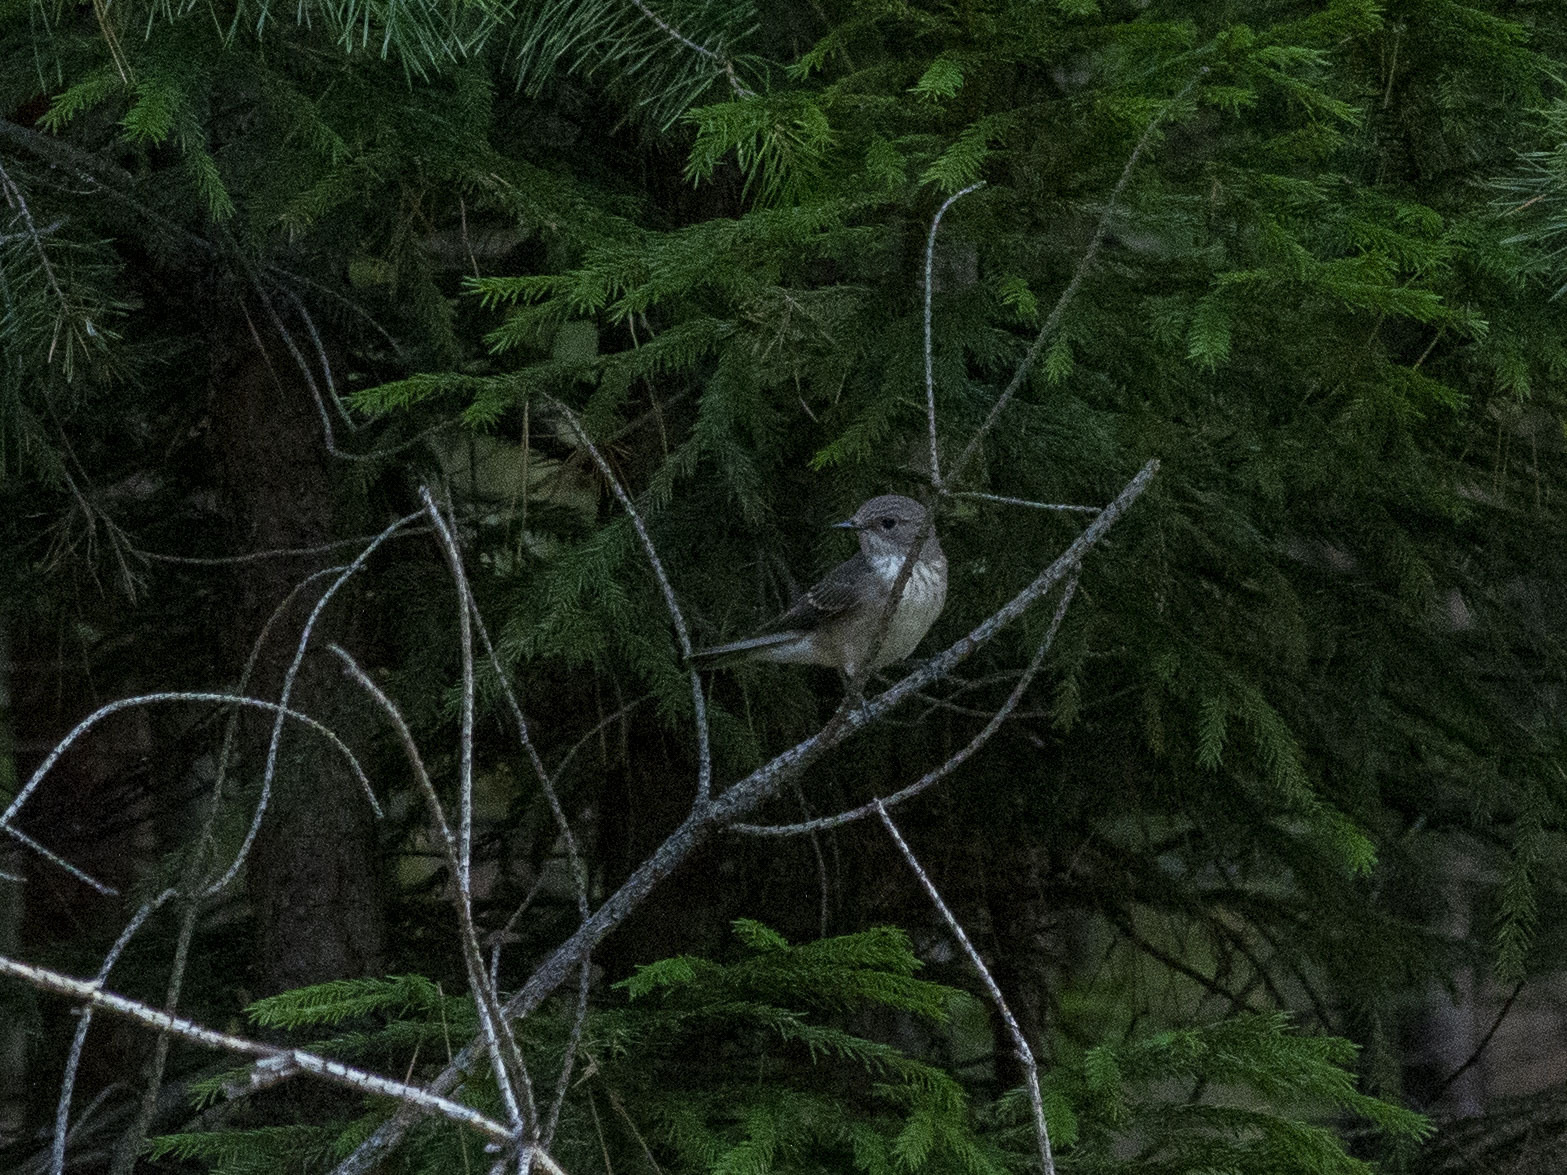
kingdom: Animalia
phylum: Chordata
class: Aves
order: Passeriformes
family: Muscicapidae
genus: Muscicapa
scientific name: Muscicapa striata
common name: Spotted flycatcher
